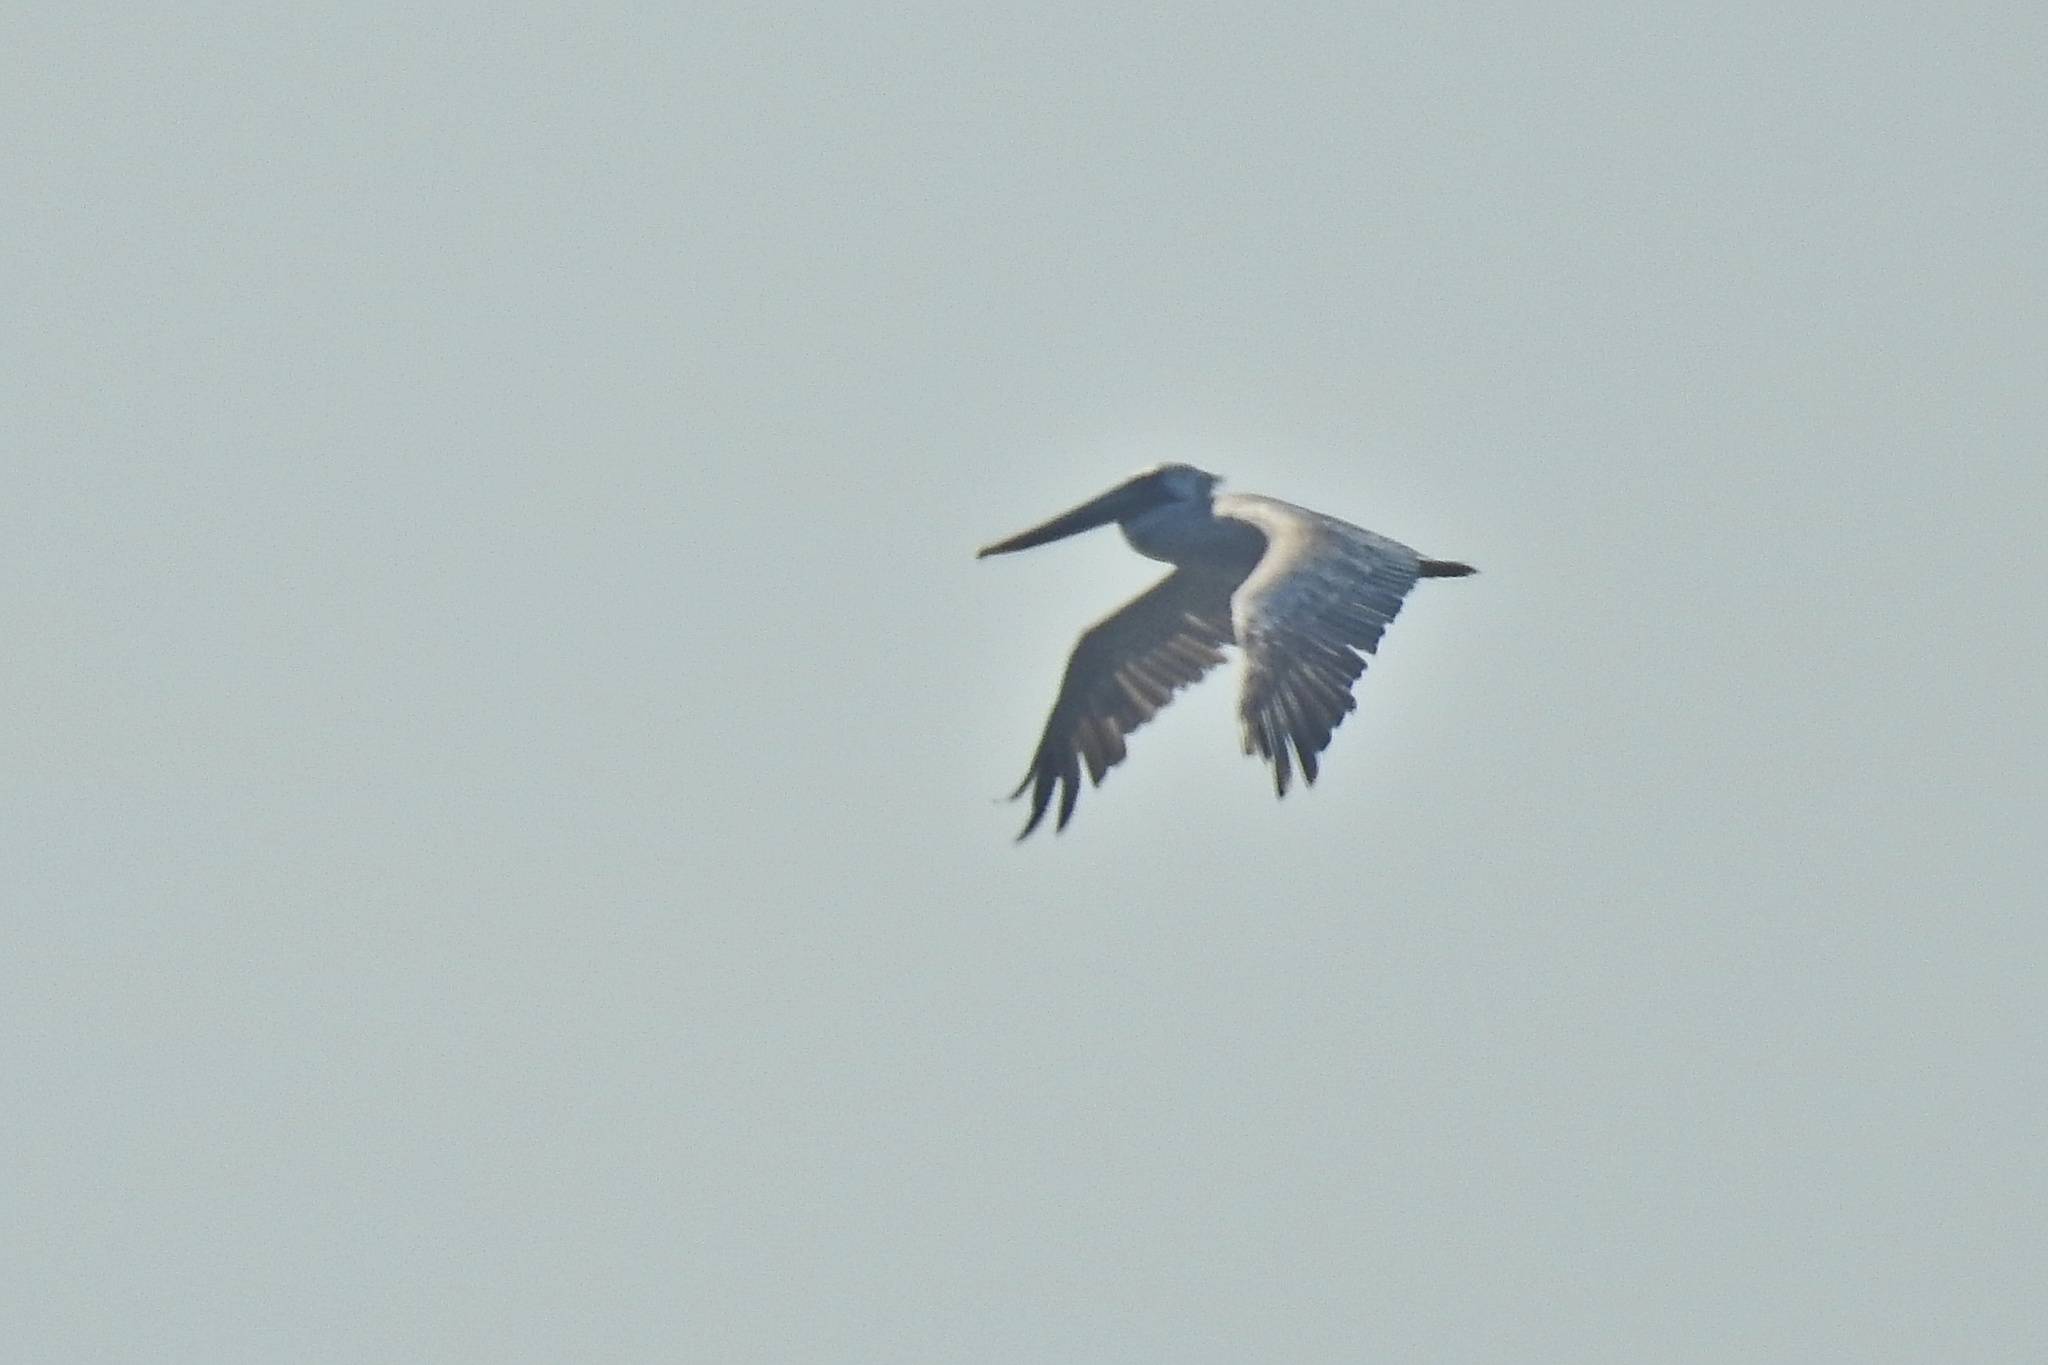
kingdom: Animalia
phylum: Chordata
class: Aves
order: Pelecaniformes
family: Pelecanidae
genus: Pelecanus
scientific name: Pelecanus occidentalis
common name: Brown pelican
